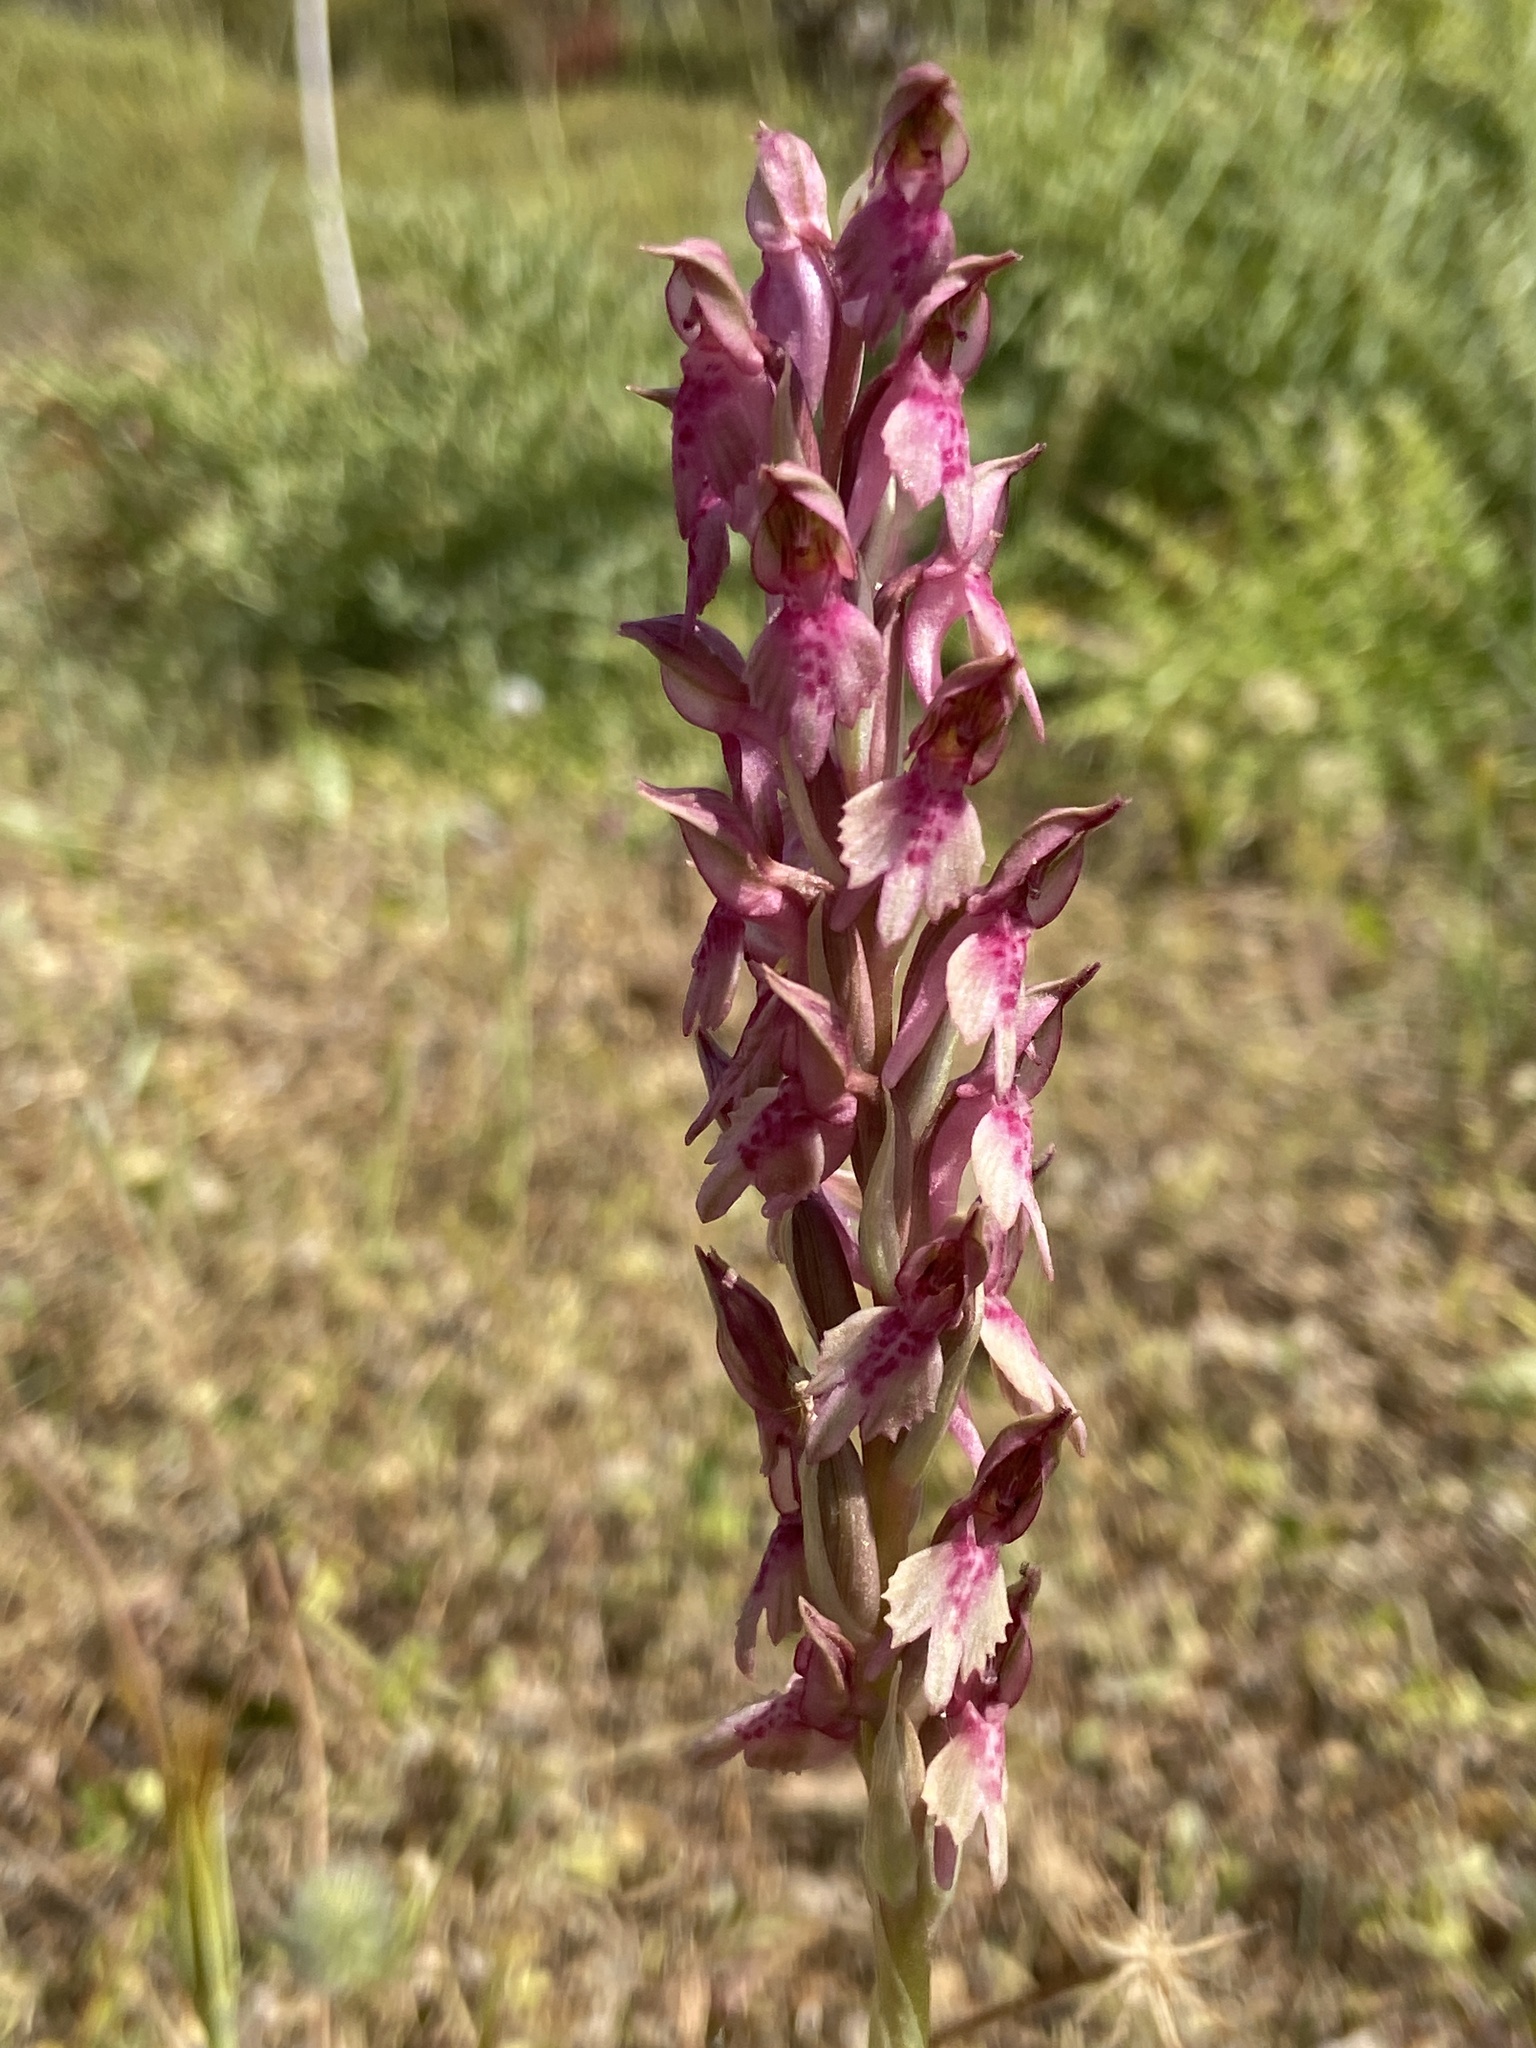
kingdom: Plantae
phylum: Tracheophyta
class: Liliopsida
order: Asparagales
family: Orchidaceae
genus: Anacamptis
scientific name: Anacamptis coriophora
